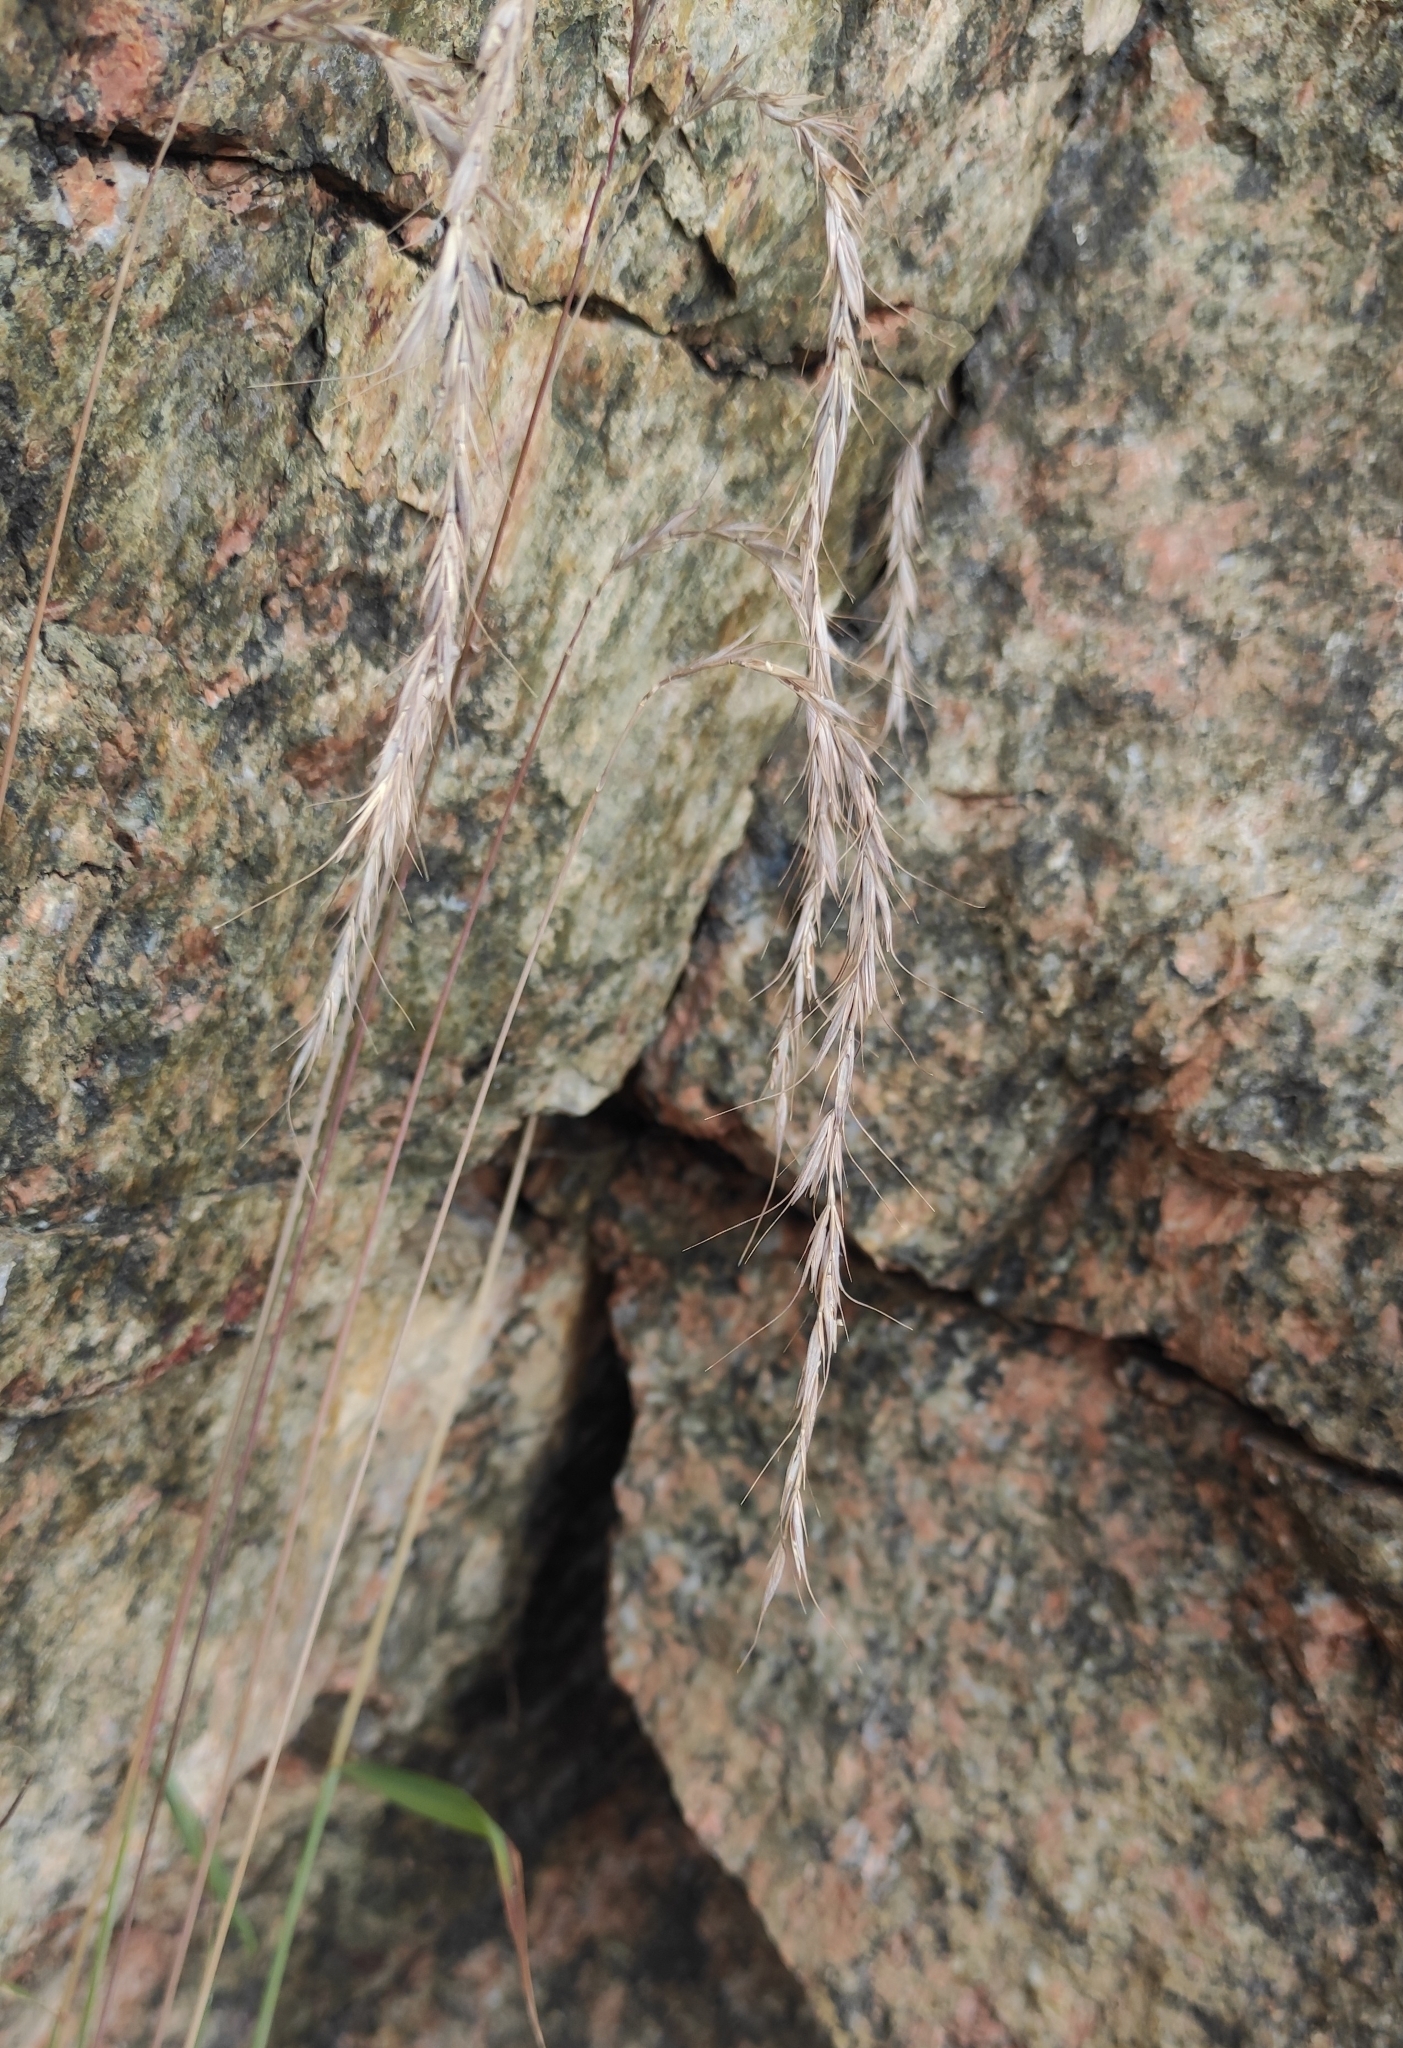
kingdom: Plantae
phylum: Tracheophyta
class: Liliopsida
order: Poales
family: Poaceae
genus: Elymus
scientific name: Elymus sibiricus
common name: Siberian wildrye
